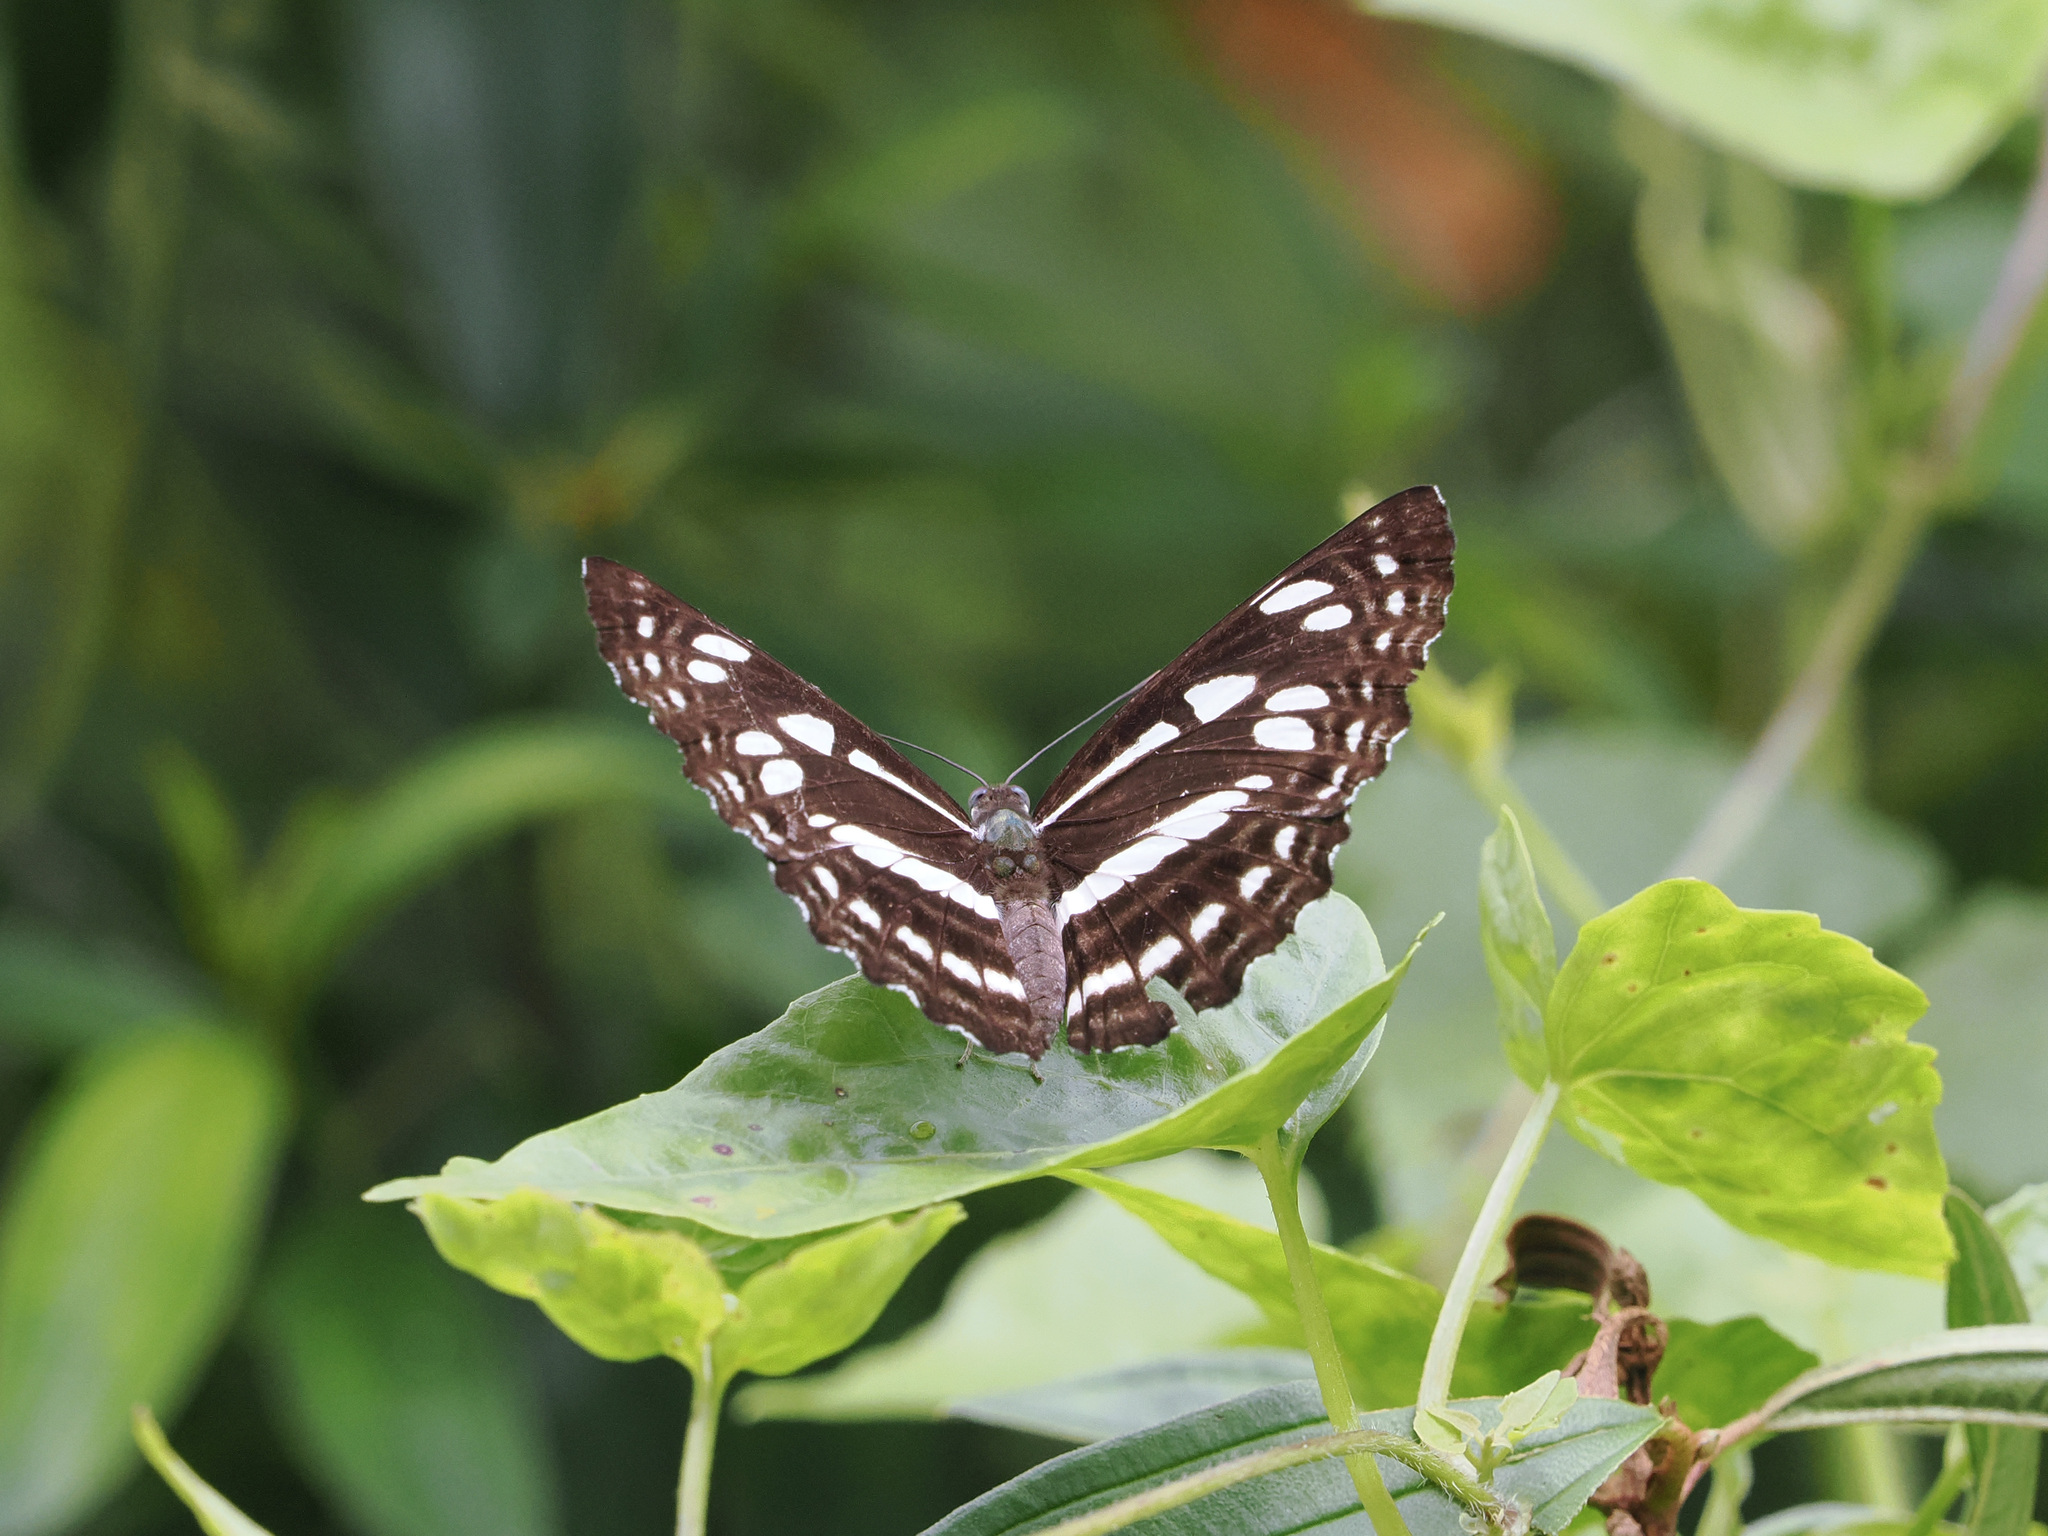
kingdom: Animalia
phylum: Arthropoda
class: Insecta
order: Lepidoptera
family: Nymphalidae
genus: Phaedyma
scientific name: Phaedyma columella
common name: Short banded sailer
